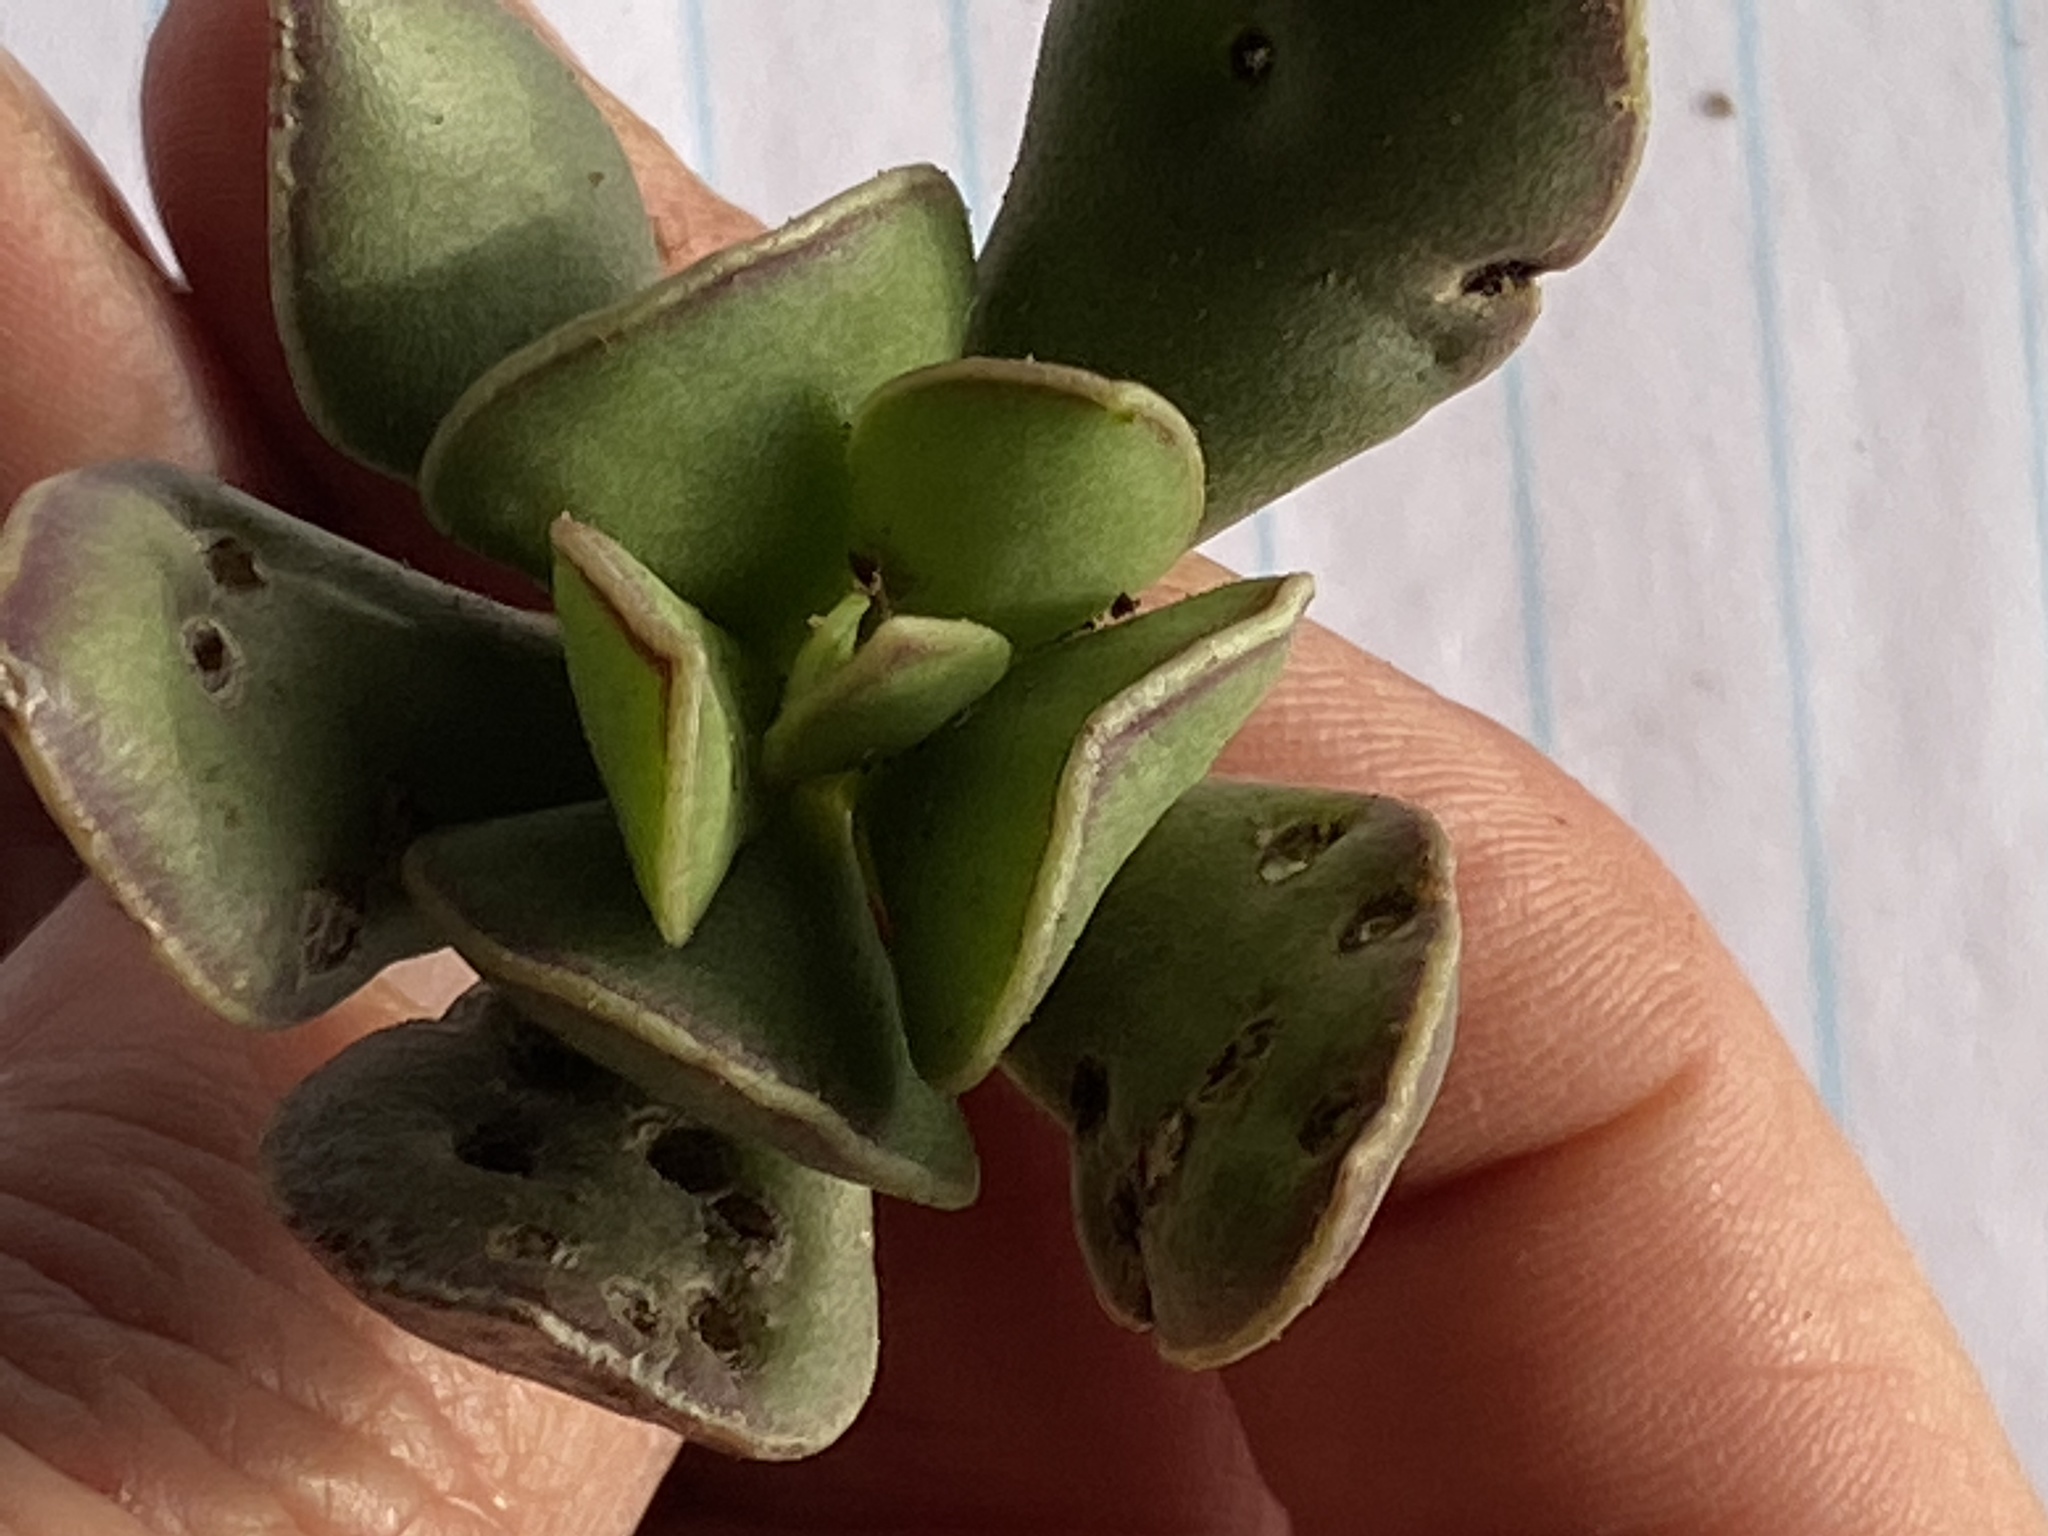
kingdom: Plantae
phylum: Tracheophyta
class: Magnoliopsida
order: Saxifragales
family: Crassulaceae
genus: Adromischus
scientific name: Adromischus caryophyllaceus
